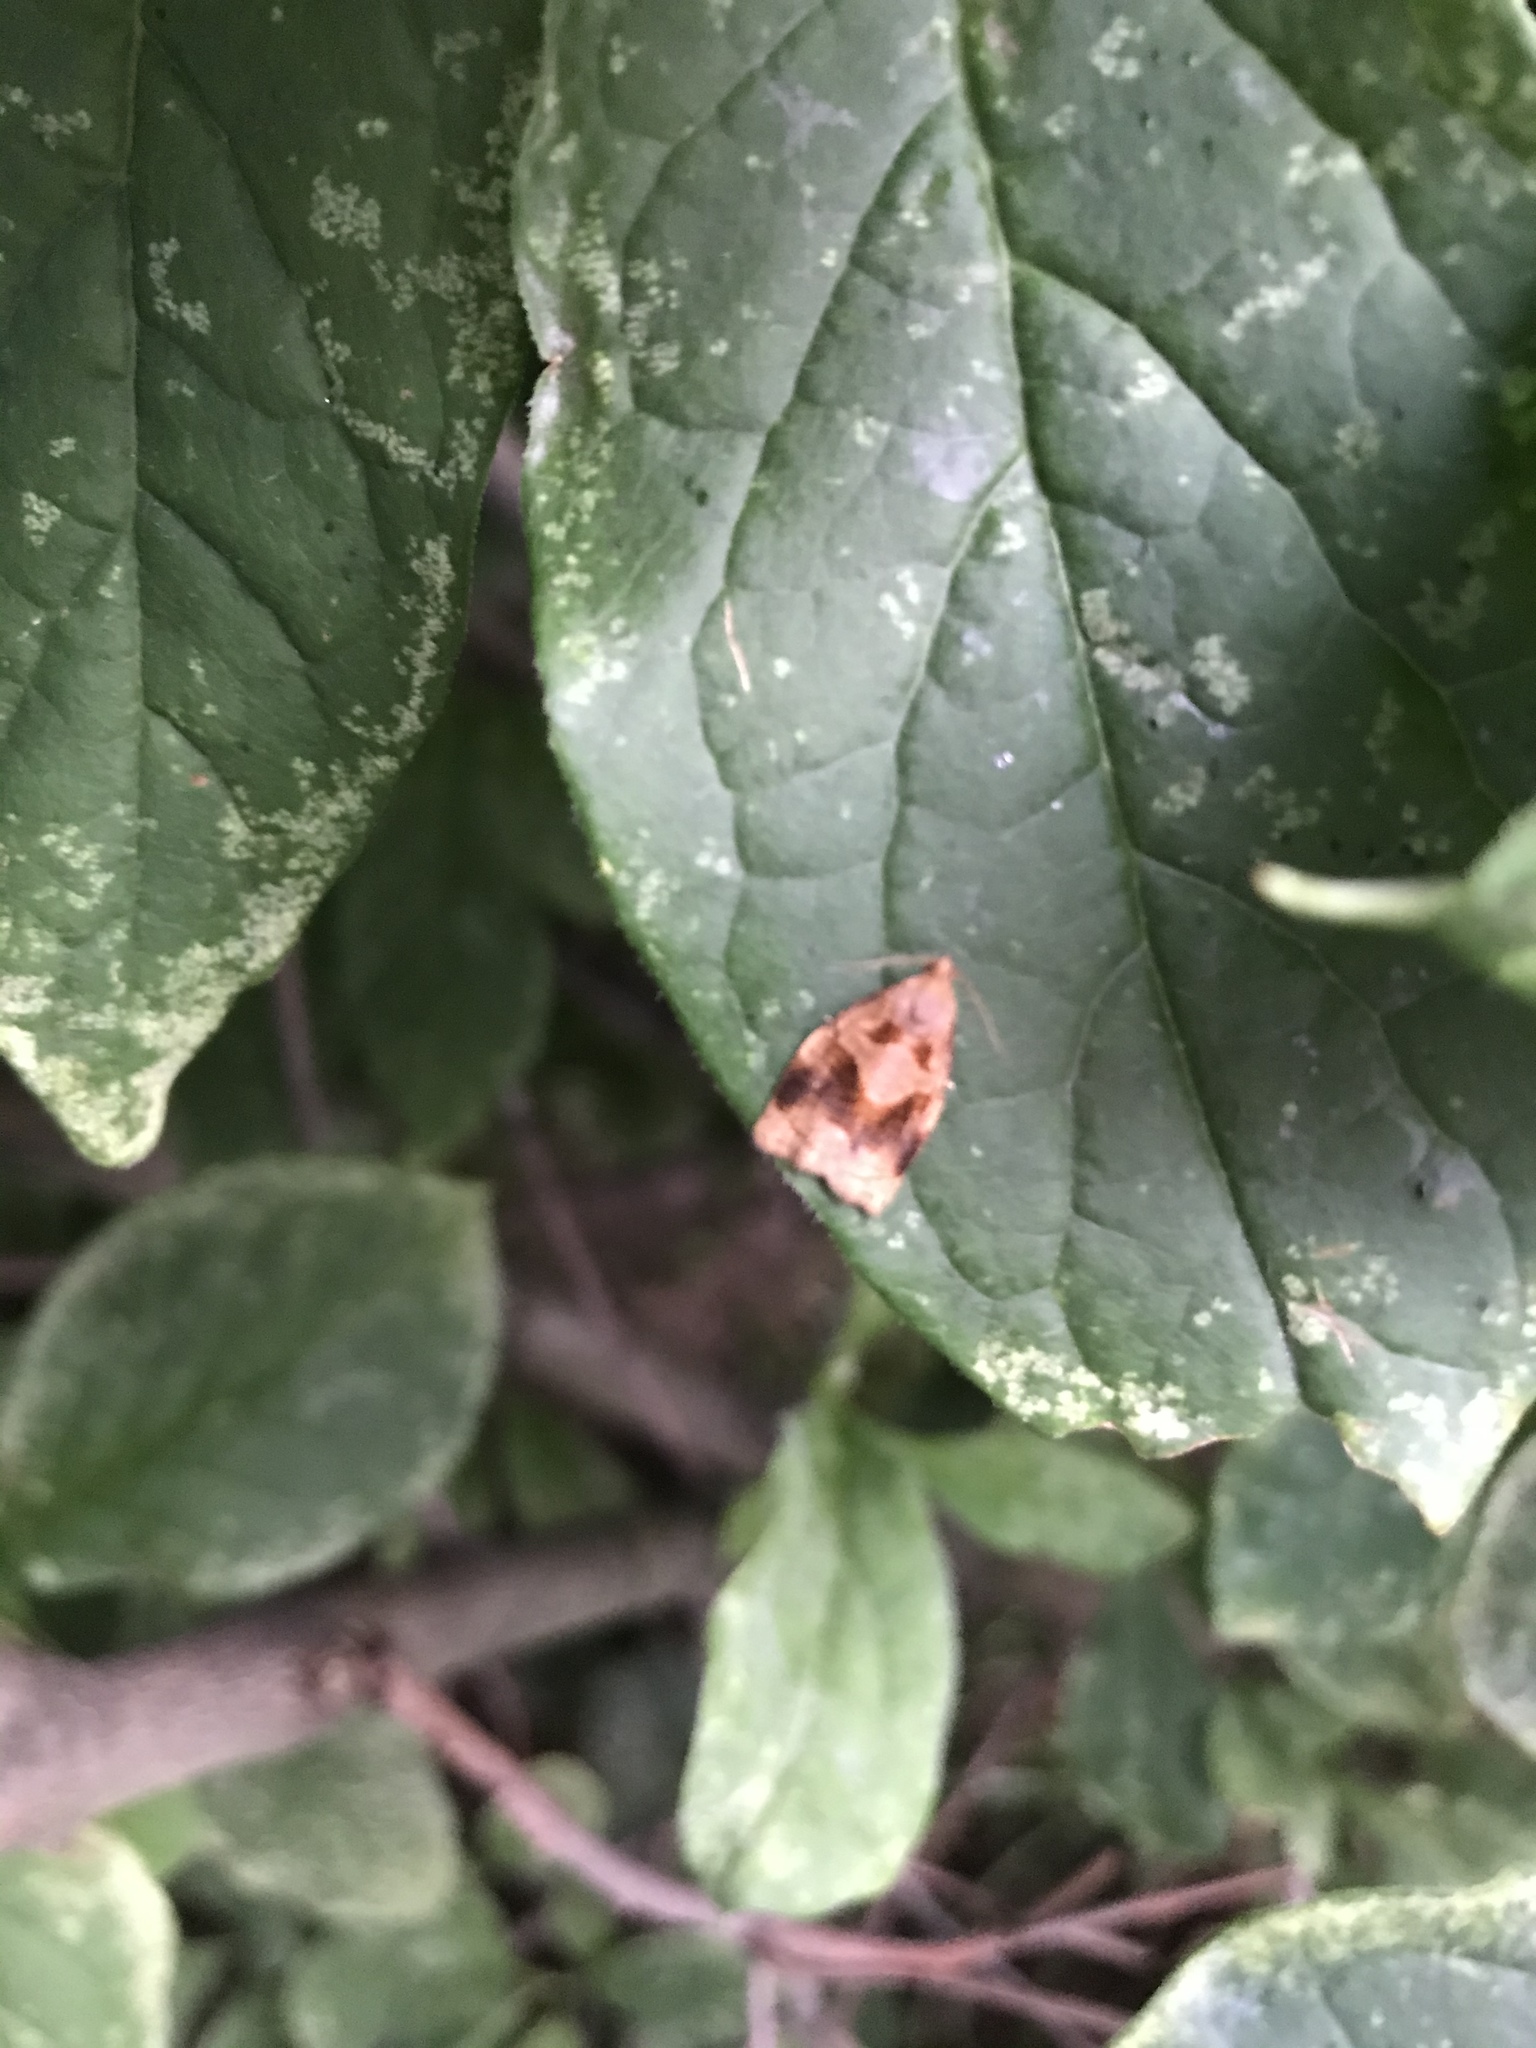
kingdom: Animalia
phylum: Arthropoda
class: Insecta
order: Lepidoptera
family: Tortricidae
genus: Archips
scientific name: Archips xylosteana
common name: Variegated golden tortrix
